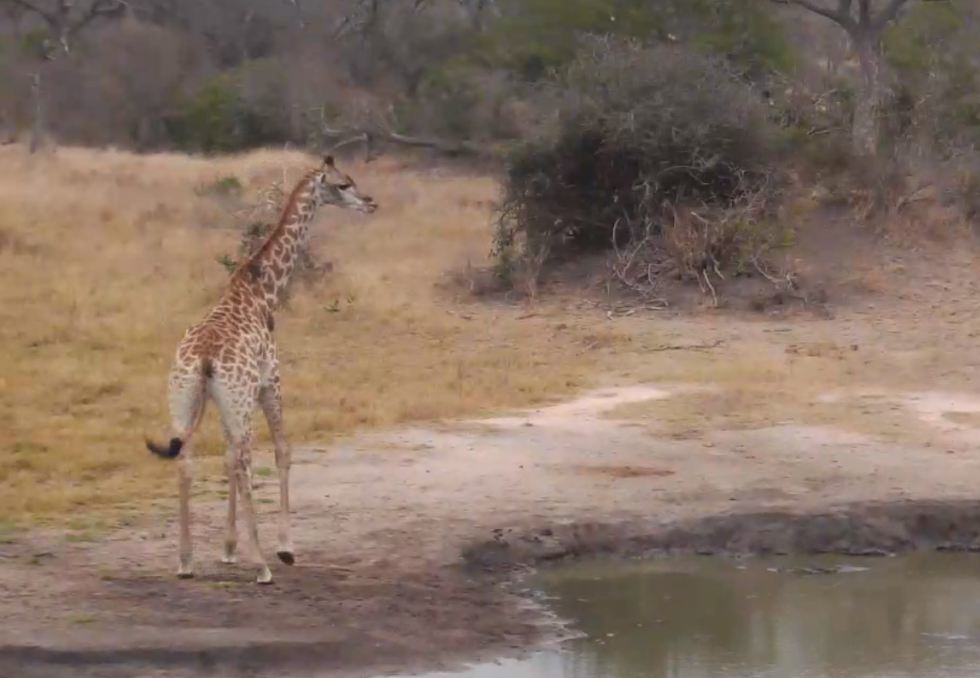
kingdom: Animalia
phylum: Chordata
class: Mammalia
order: Artiodactyla
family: Giraffidae
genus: Giraffa
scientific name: Giraffa giraffa
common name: Southern giraffe
